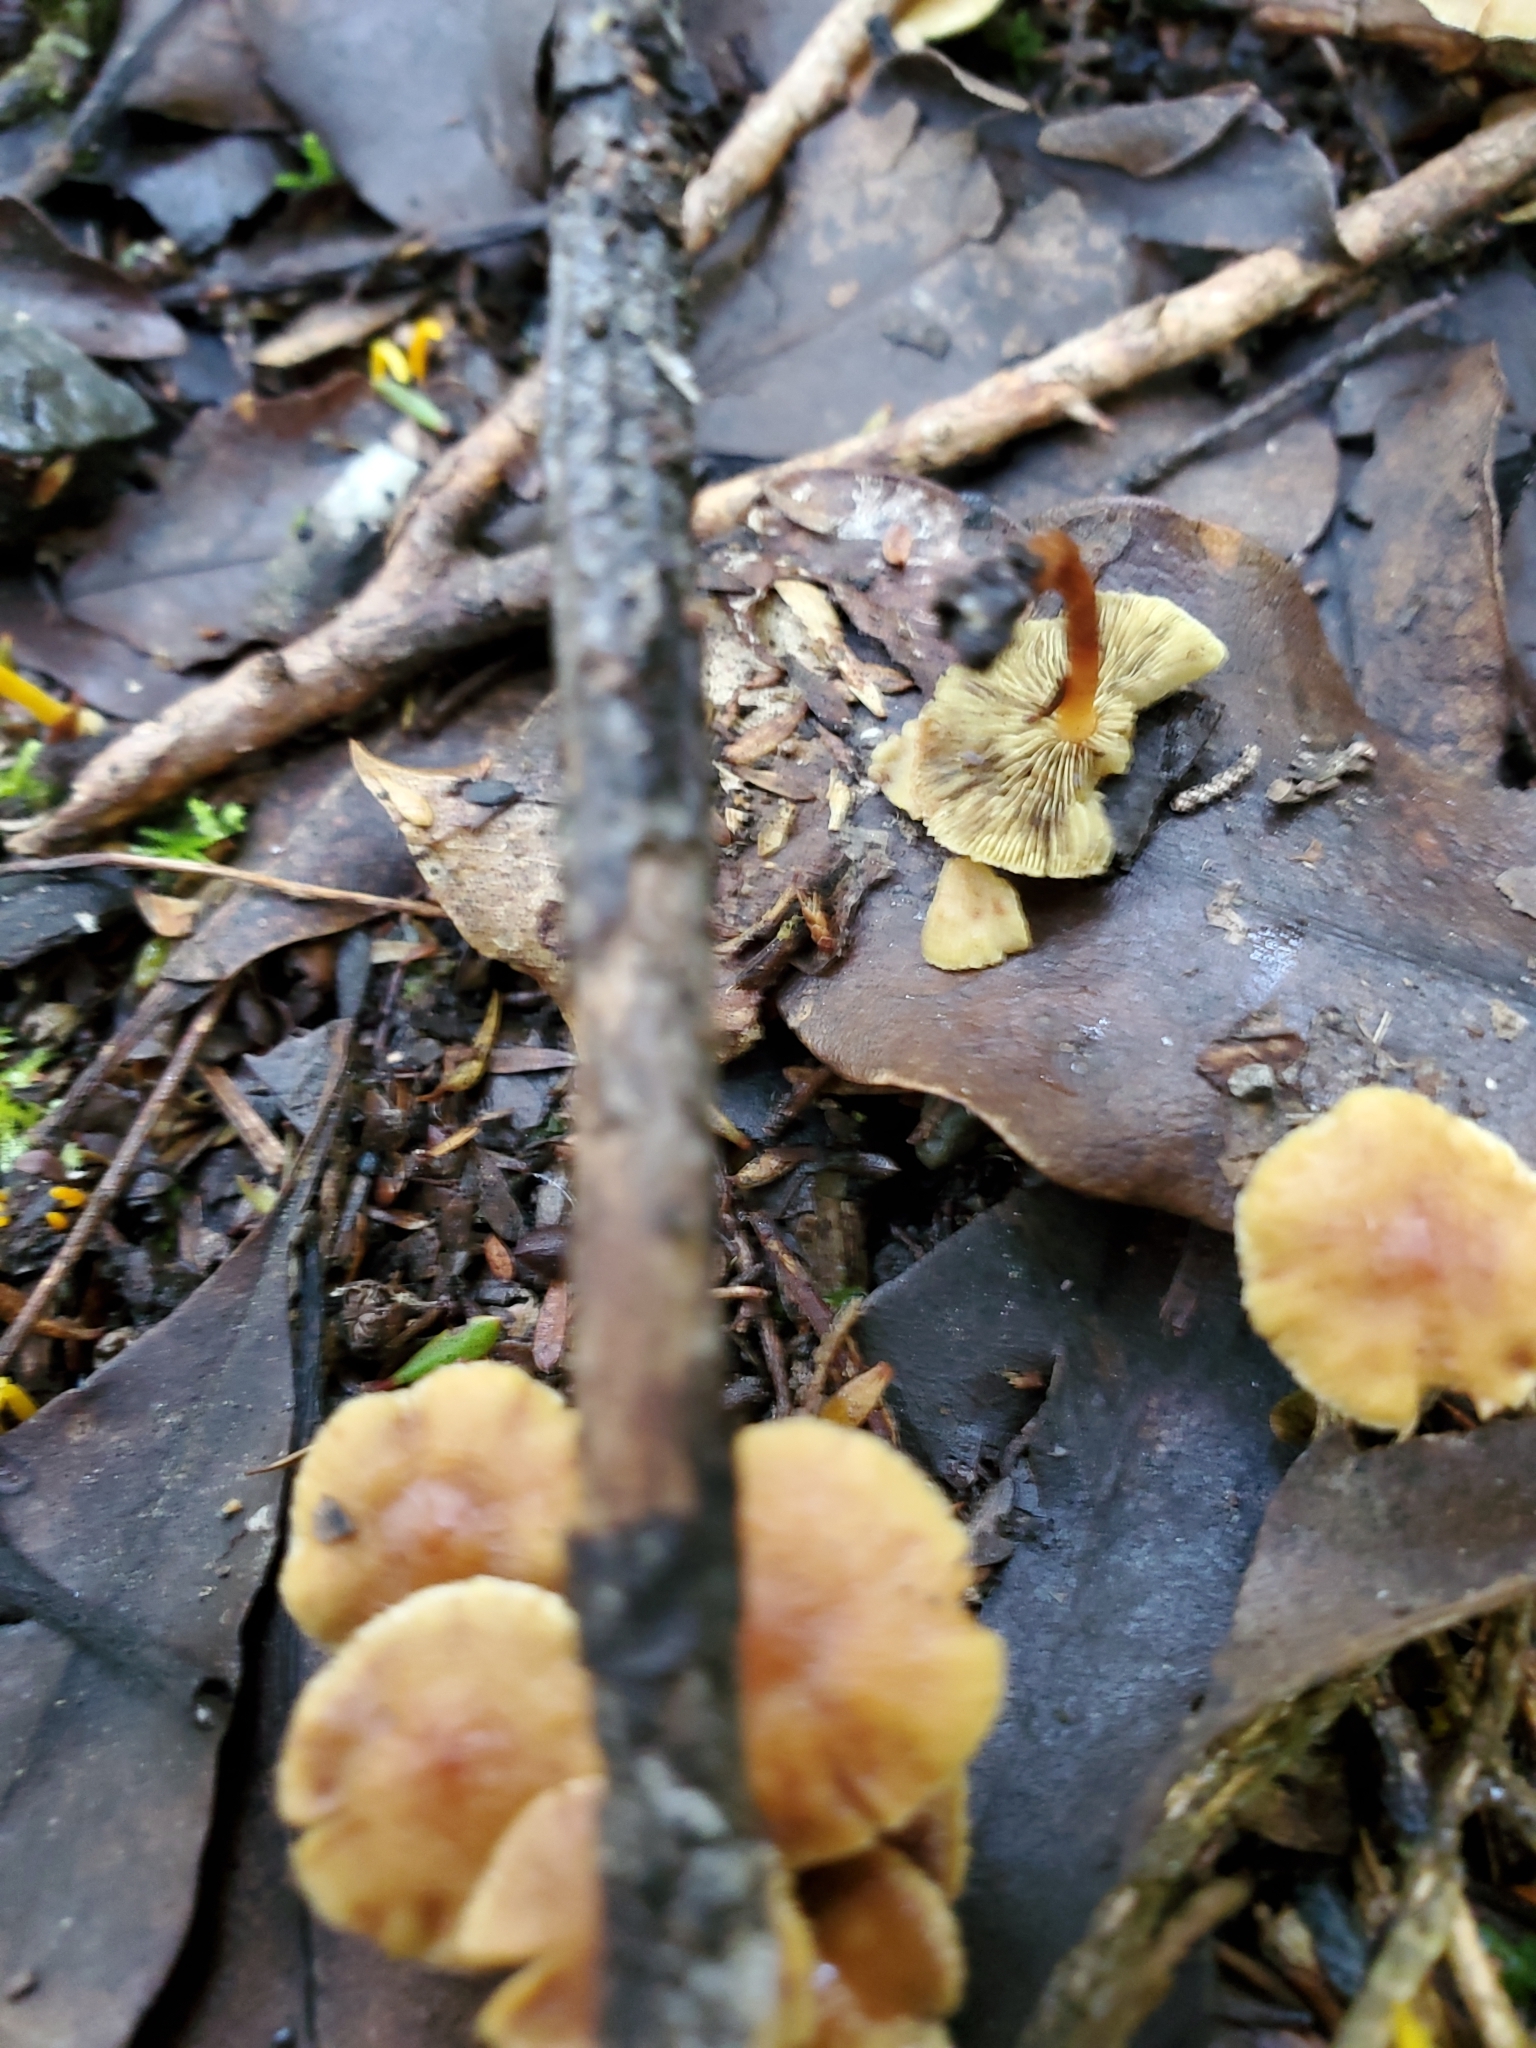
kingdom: Fungi
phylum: Basidiomycota
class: Agaricomycetes
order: Agaricales
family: Strophariaceae
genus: Hypholoma
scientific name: Hypholoma acutum
